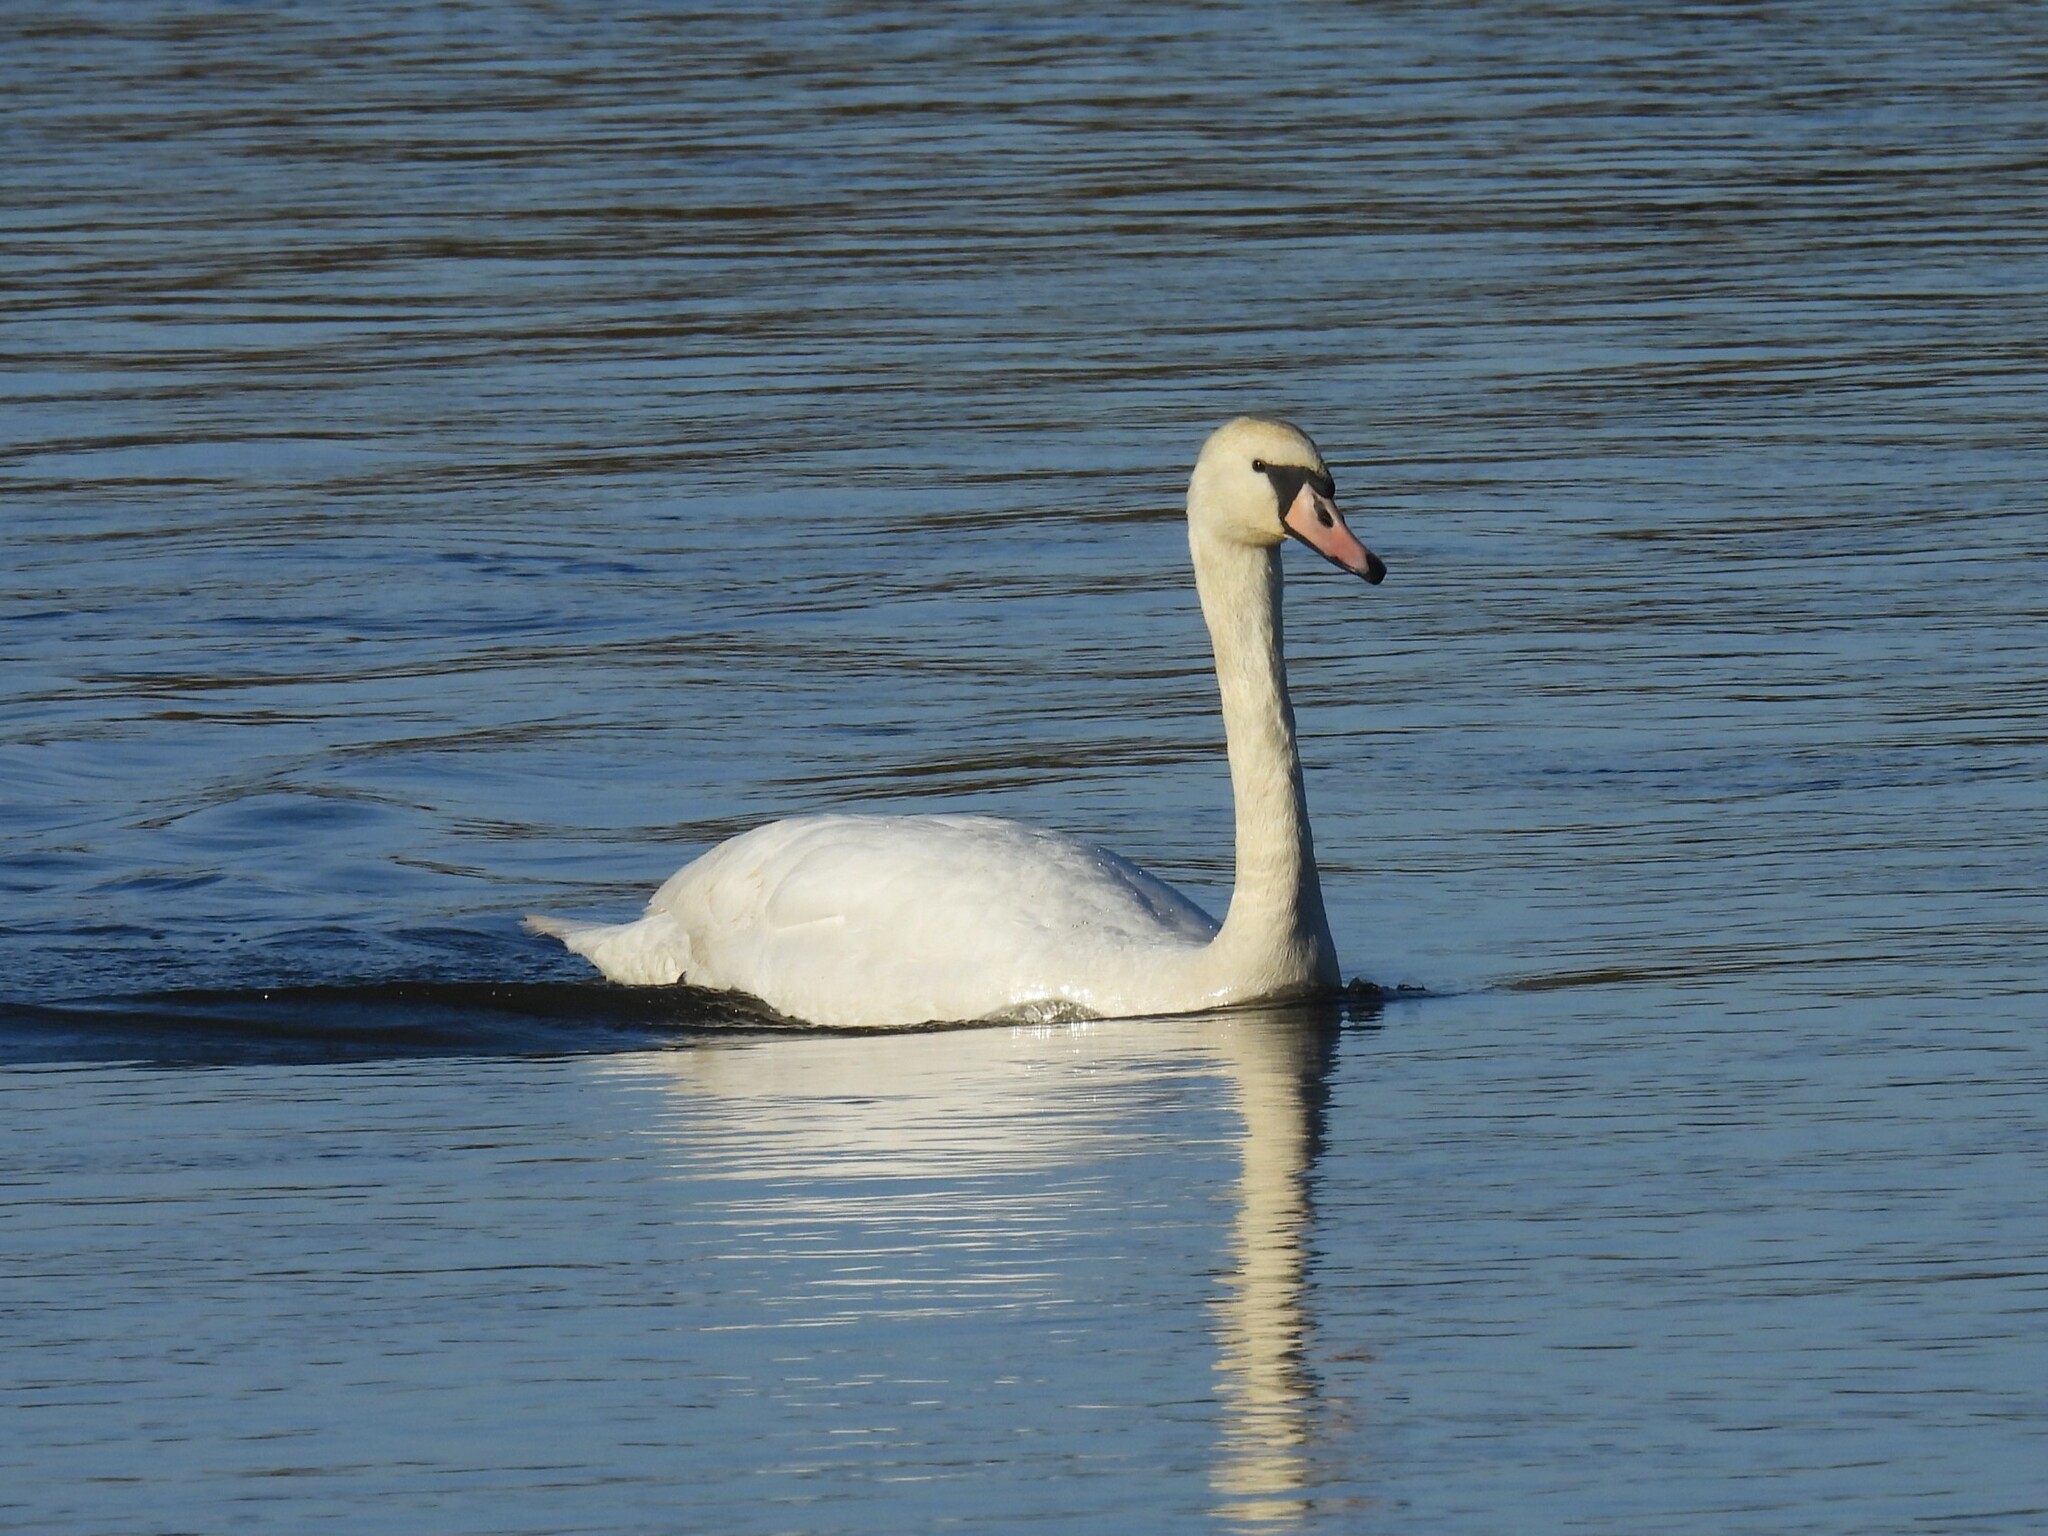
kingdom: Animalia
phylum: Chordata
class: Aves
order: Anseriformes
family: Anatidae
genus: Cygnus
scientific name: Cygnus olor
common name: Mute swan
